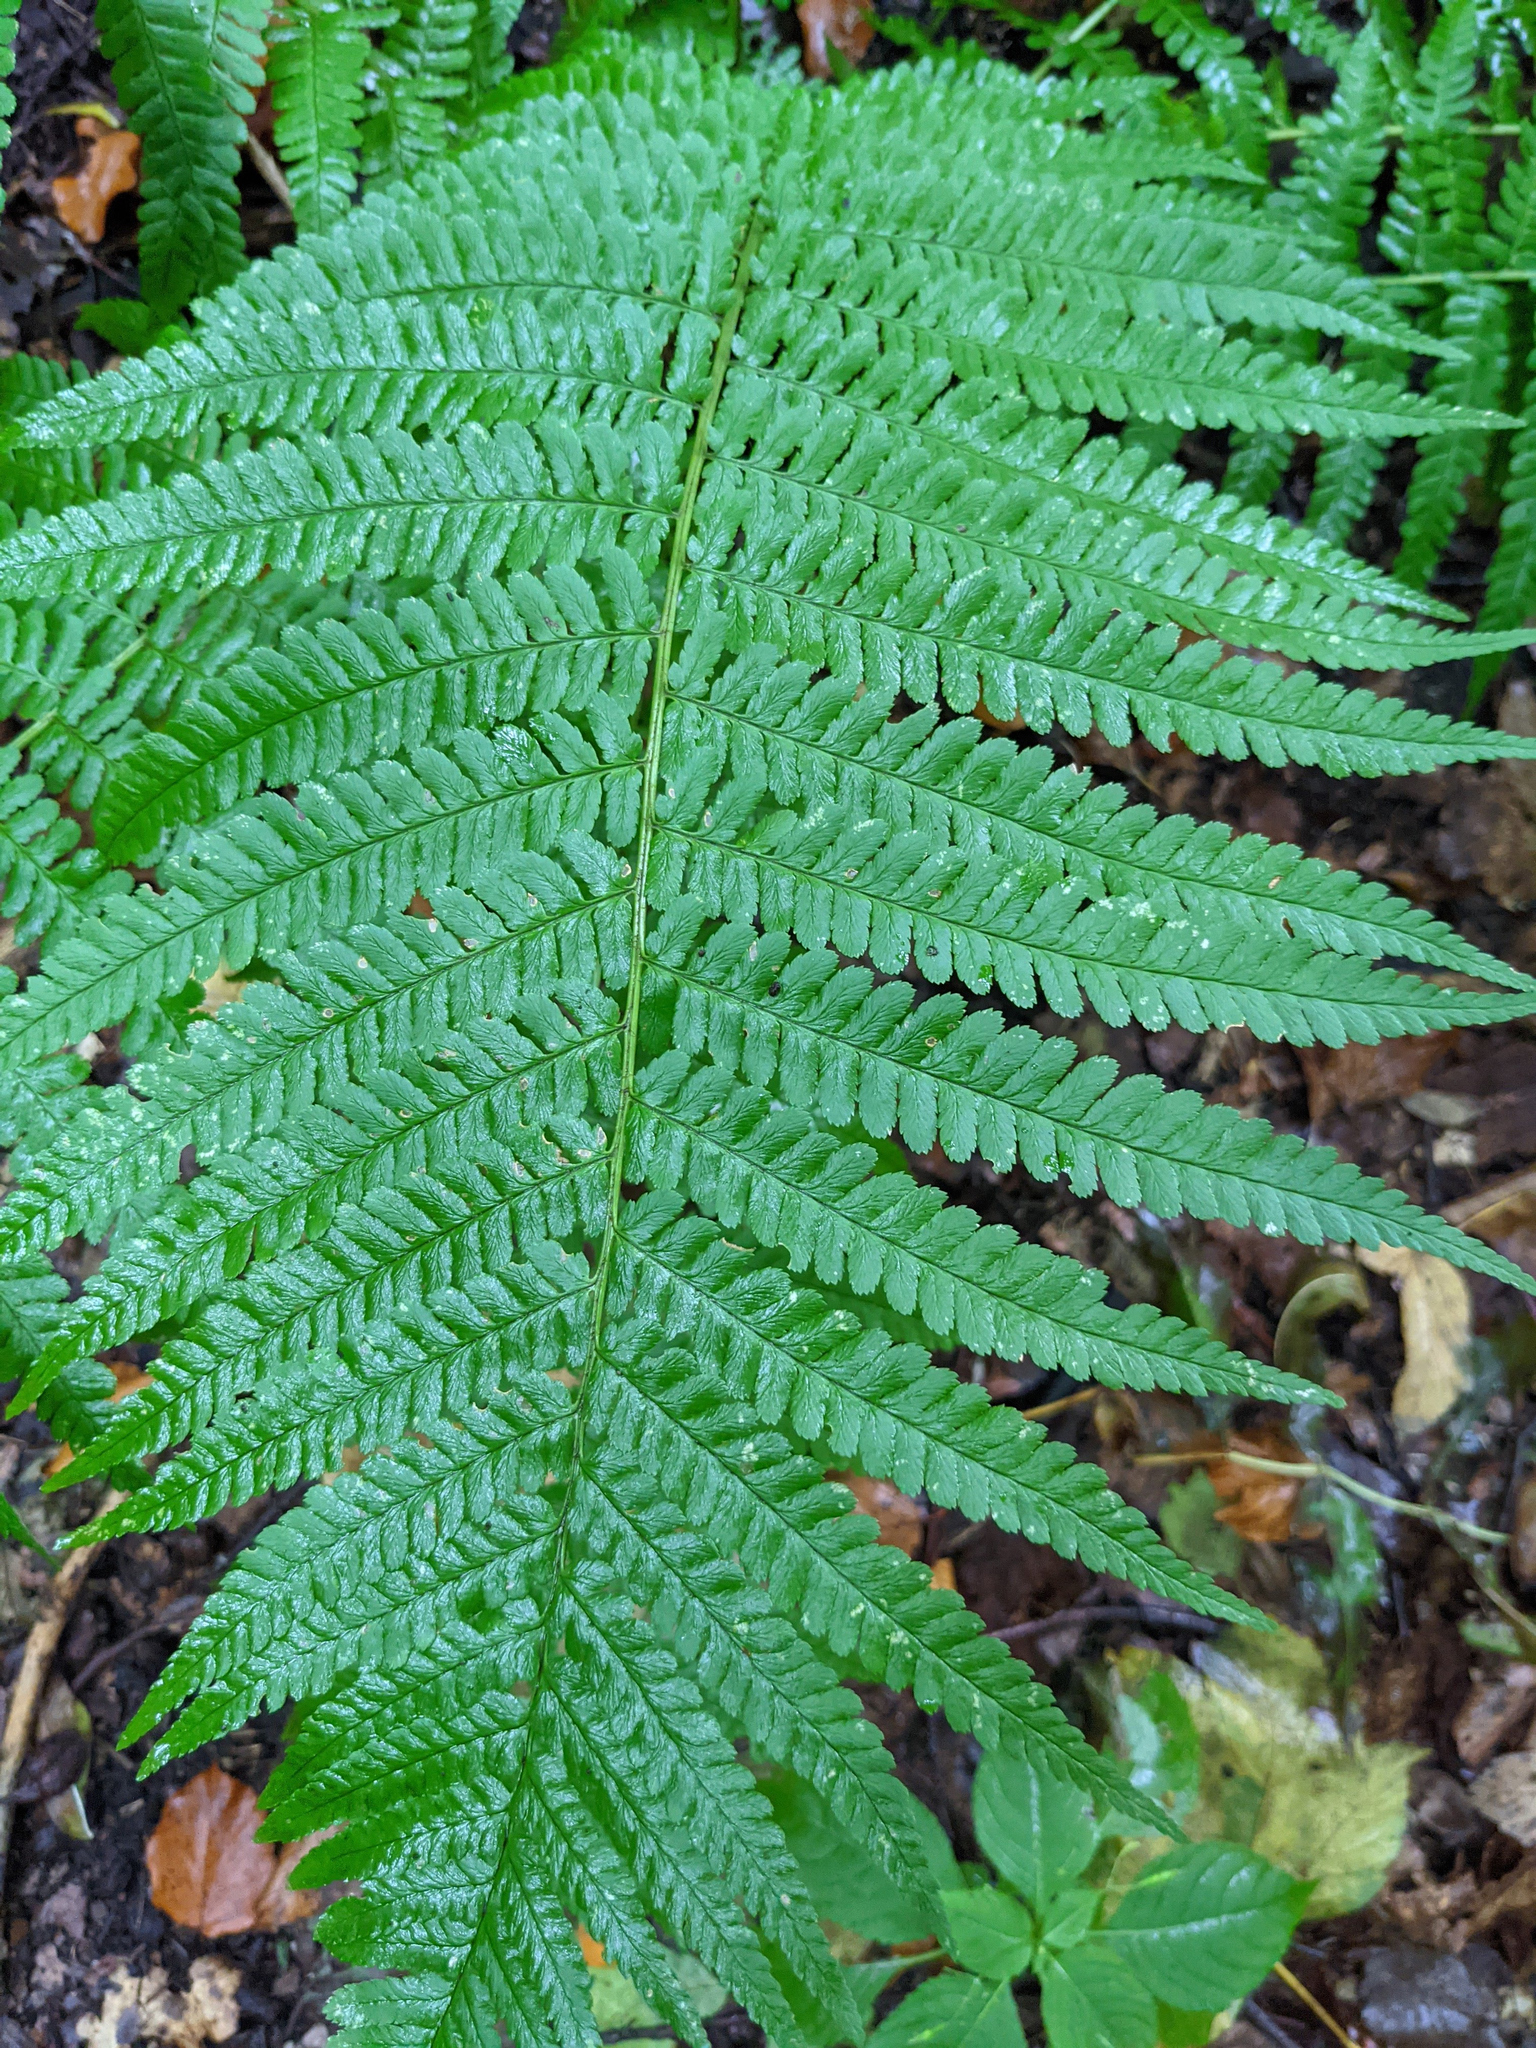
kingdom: Plantae
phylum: Tracheophyta
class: Polypodiopsida
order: Polypodiales
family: Dryopteridaceae
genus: Dryopteris
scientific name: Dryopteris filix-mas
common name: Male fern
